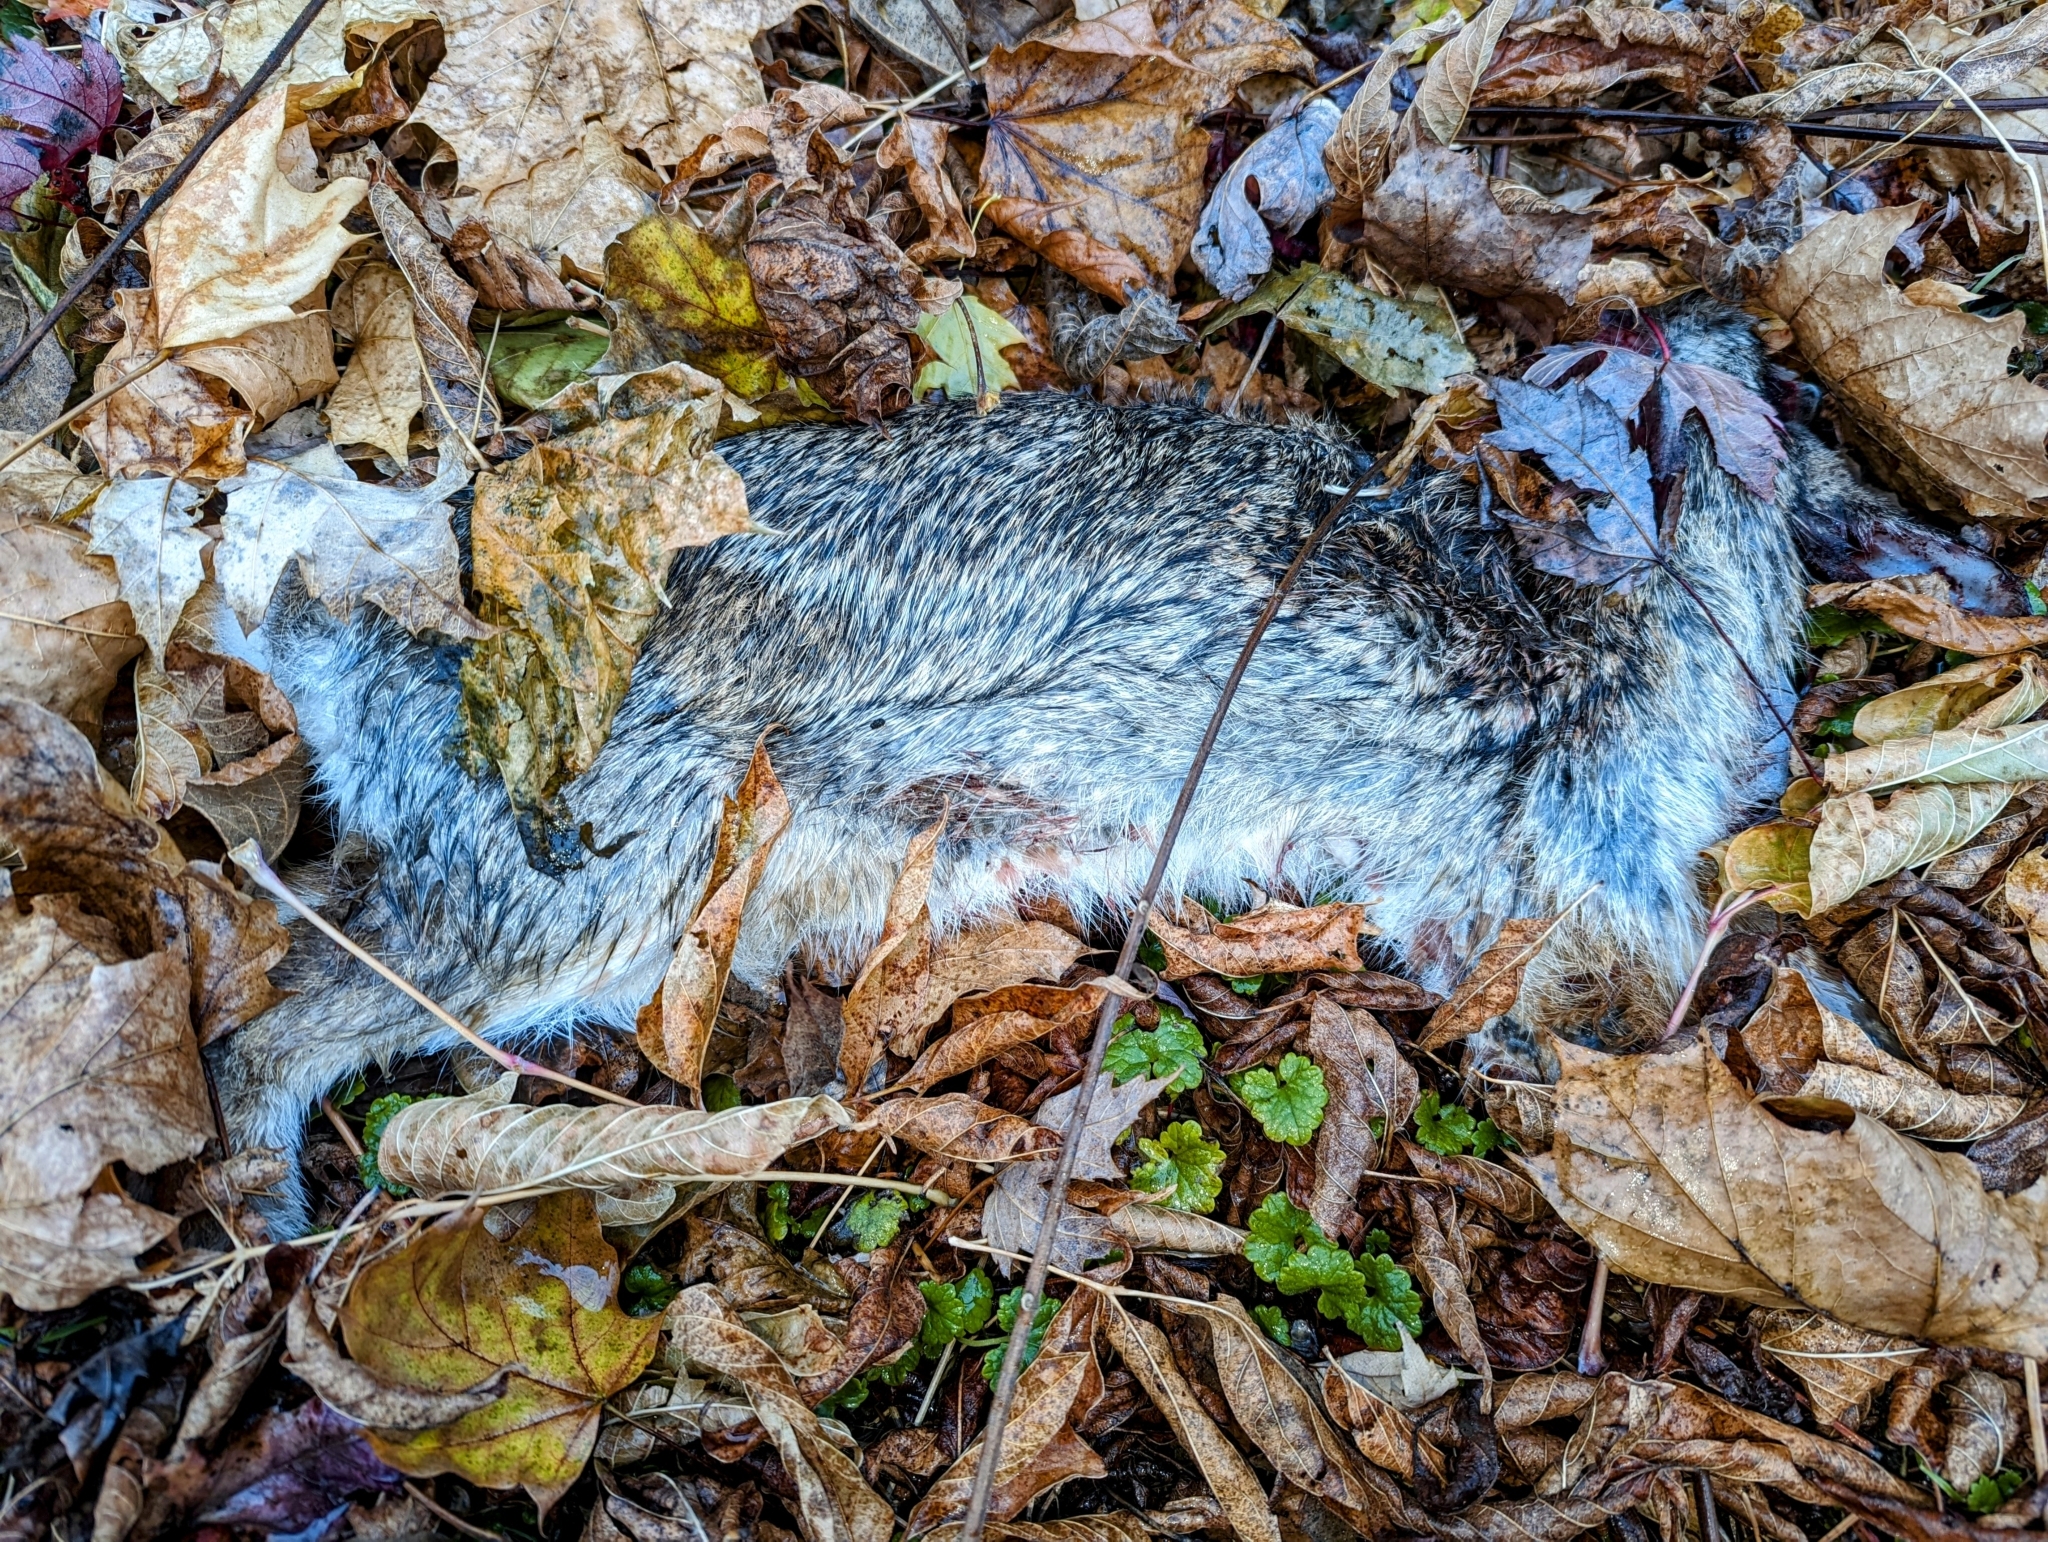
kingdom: Animalia
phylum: Chordata
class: Mammalia
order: Lagomorpha
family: Leporidae
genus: Sylvilagus
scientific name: Sylvilagus floridanus
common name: Eastern cottontail
